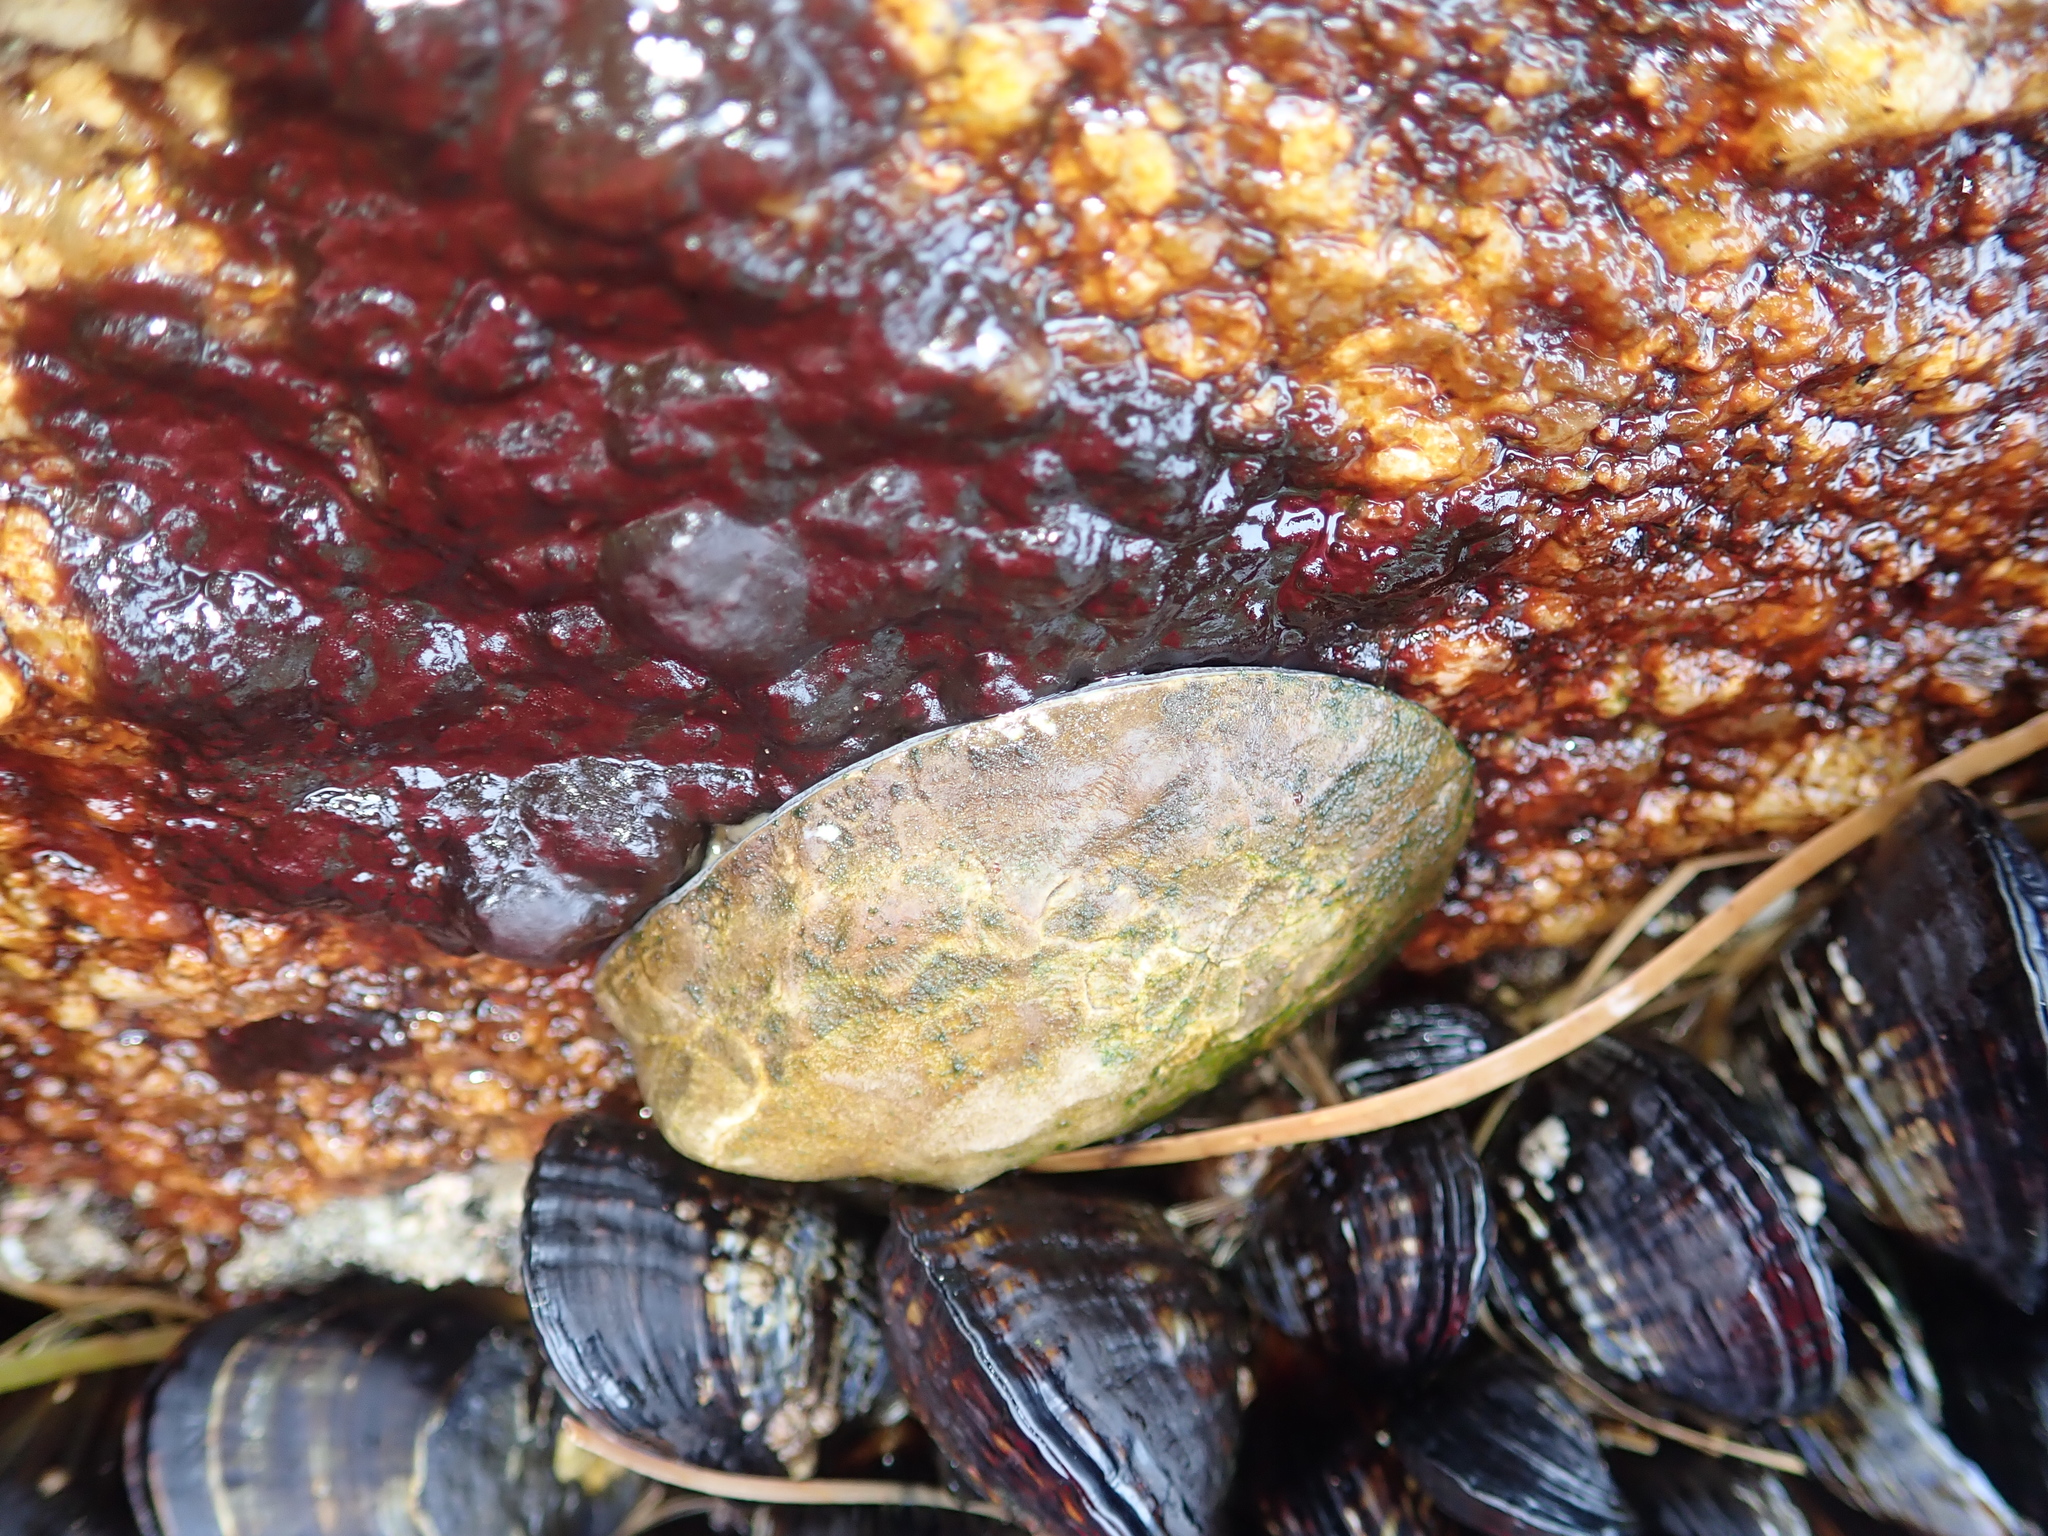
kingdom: Animalia
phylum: Mollusca
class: Gastropoda
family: Lottiidae
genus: Lottia
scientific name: Lottia gigantea
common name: Owl limpet
